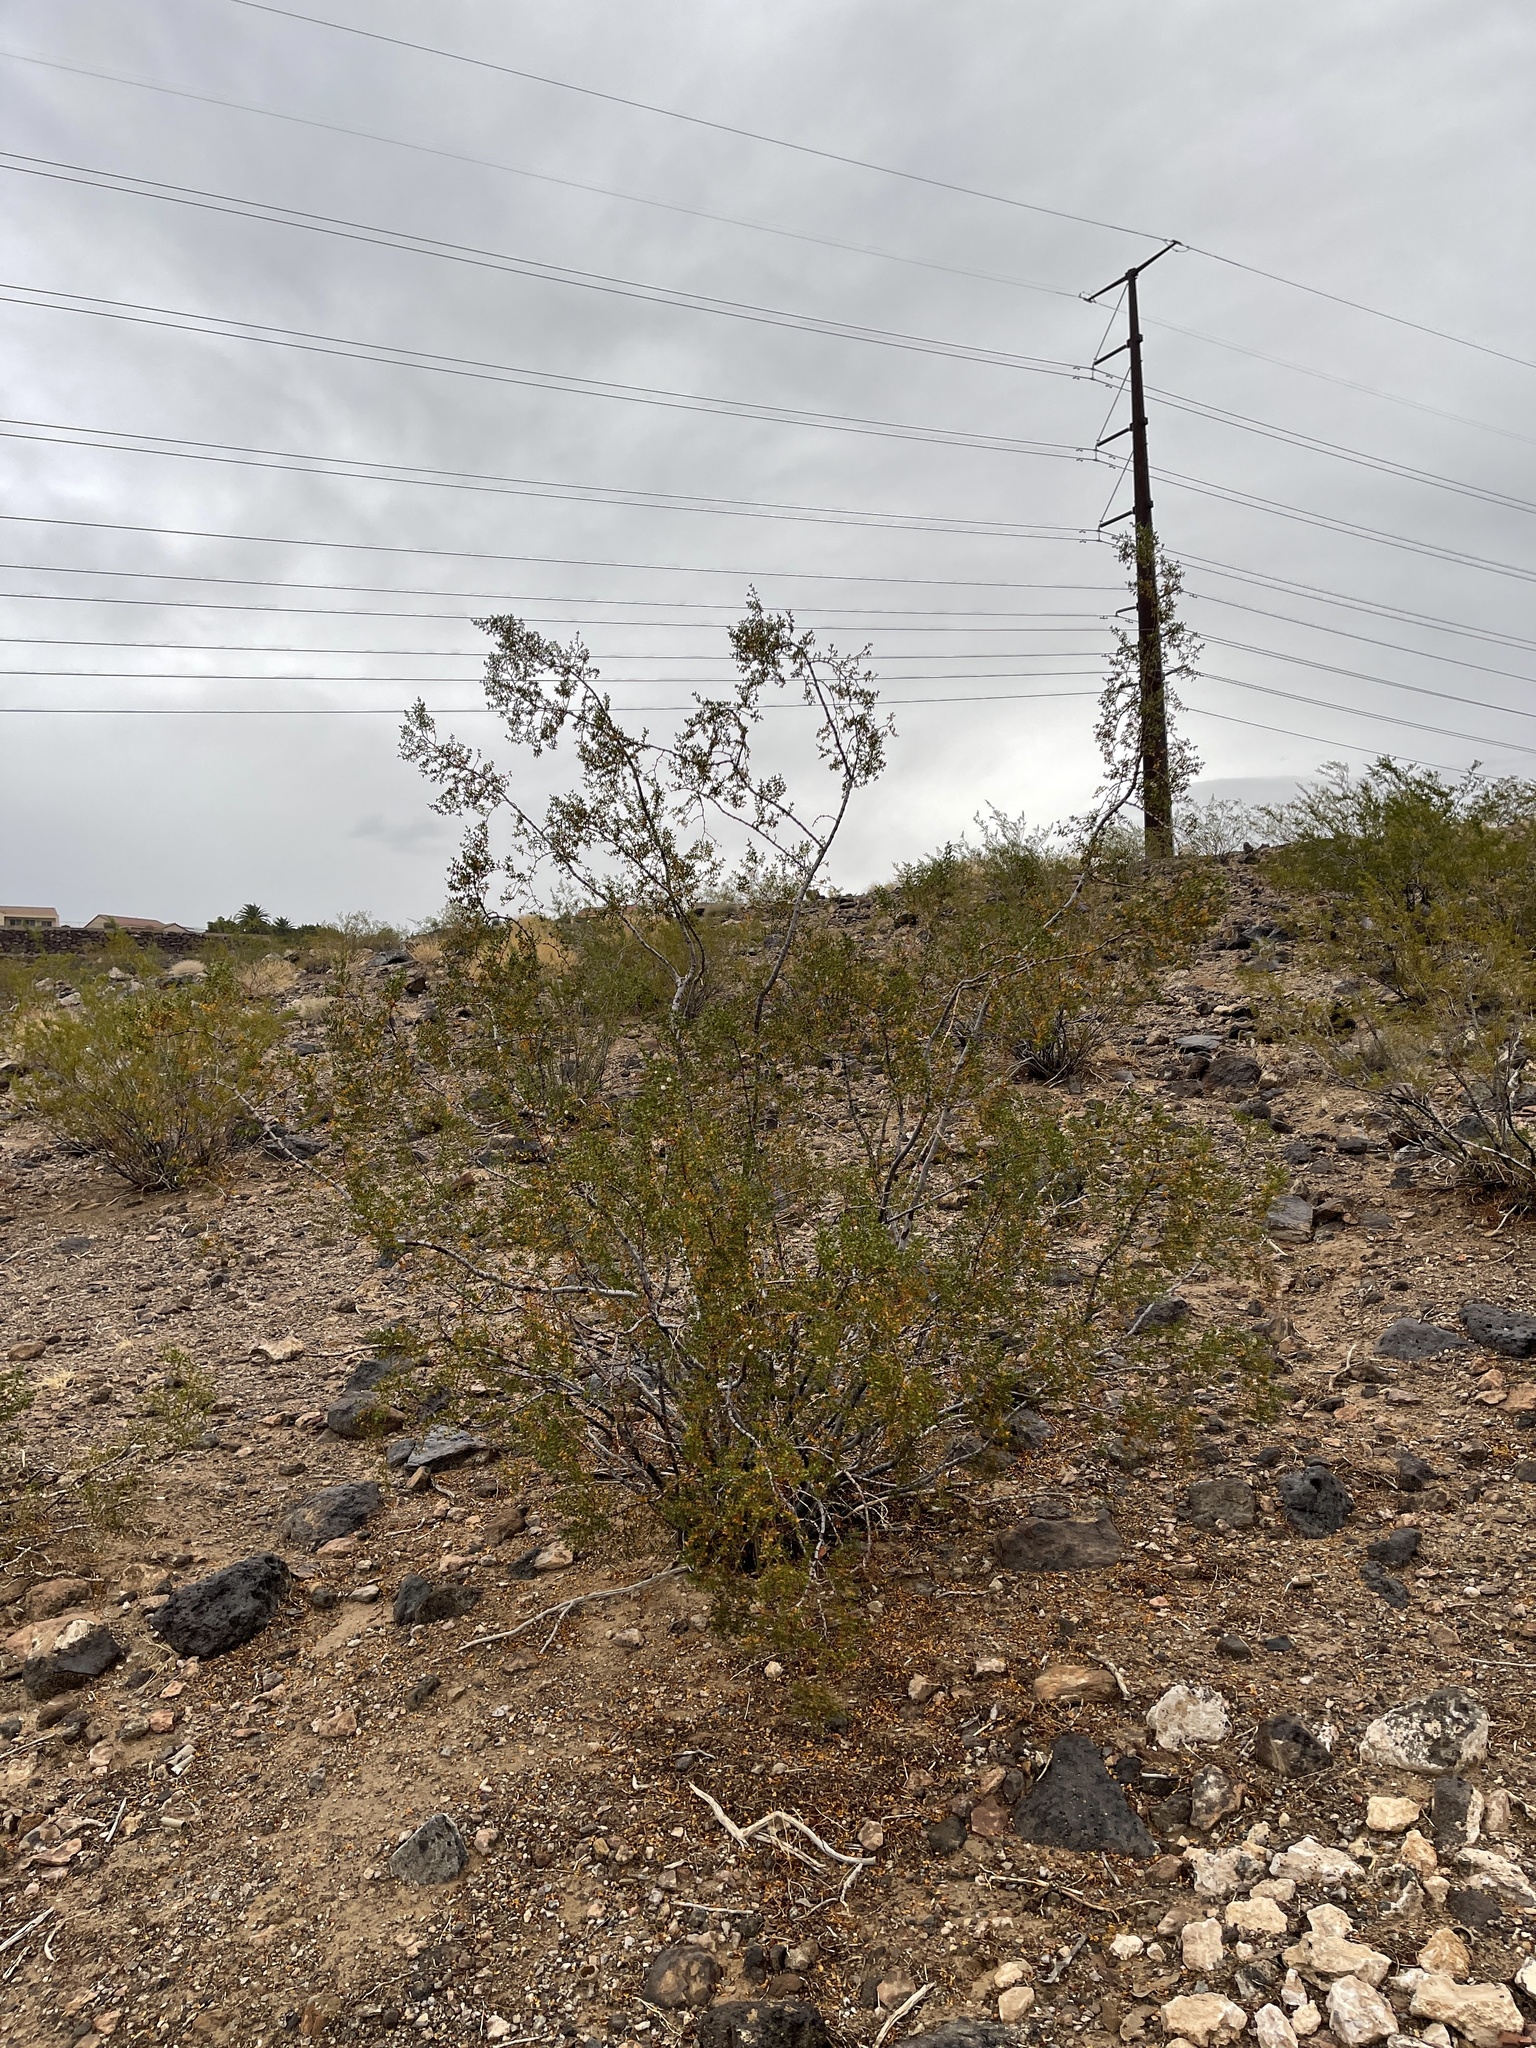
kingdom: Plantae
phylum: Tracheophyta
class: Magnoliopsida
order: Zygophyllales
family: Zygophyllaceae
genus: Larrea
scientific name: Larrea tridentata
